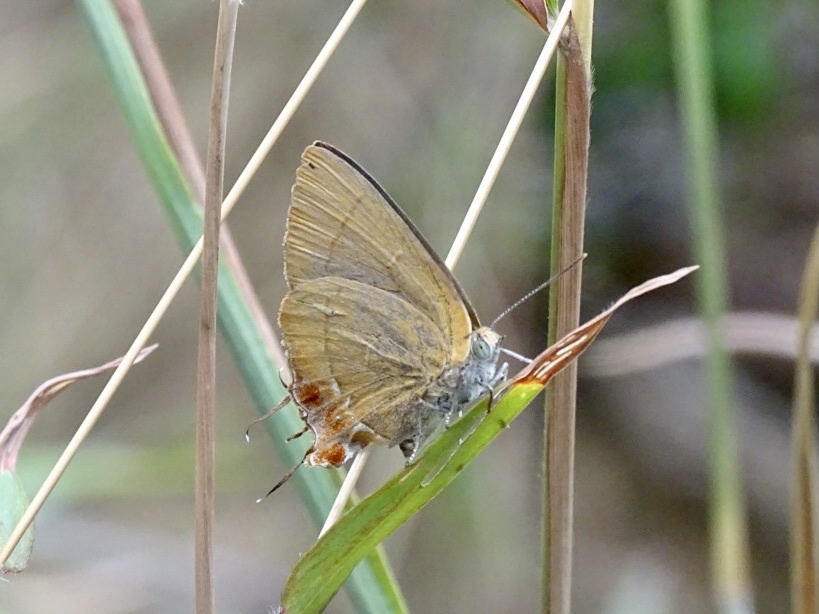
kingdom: Animalia
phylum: Arthropoda
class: Insecta
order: Lepidoptera
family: Lycaenidae
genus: Remelana
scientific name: Remelana jangala
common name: Chocolate royal
